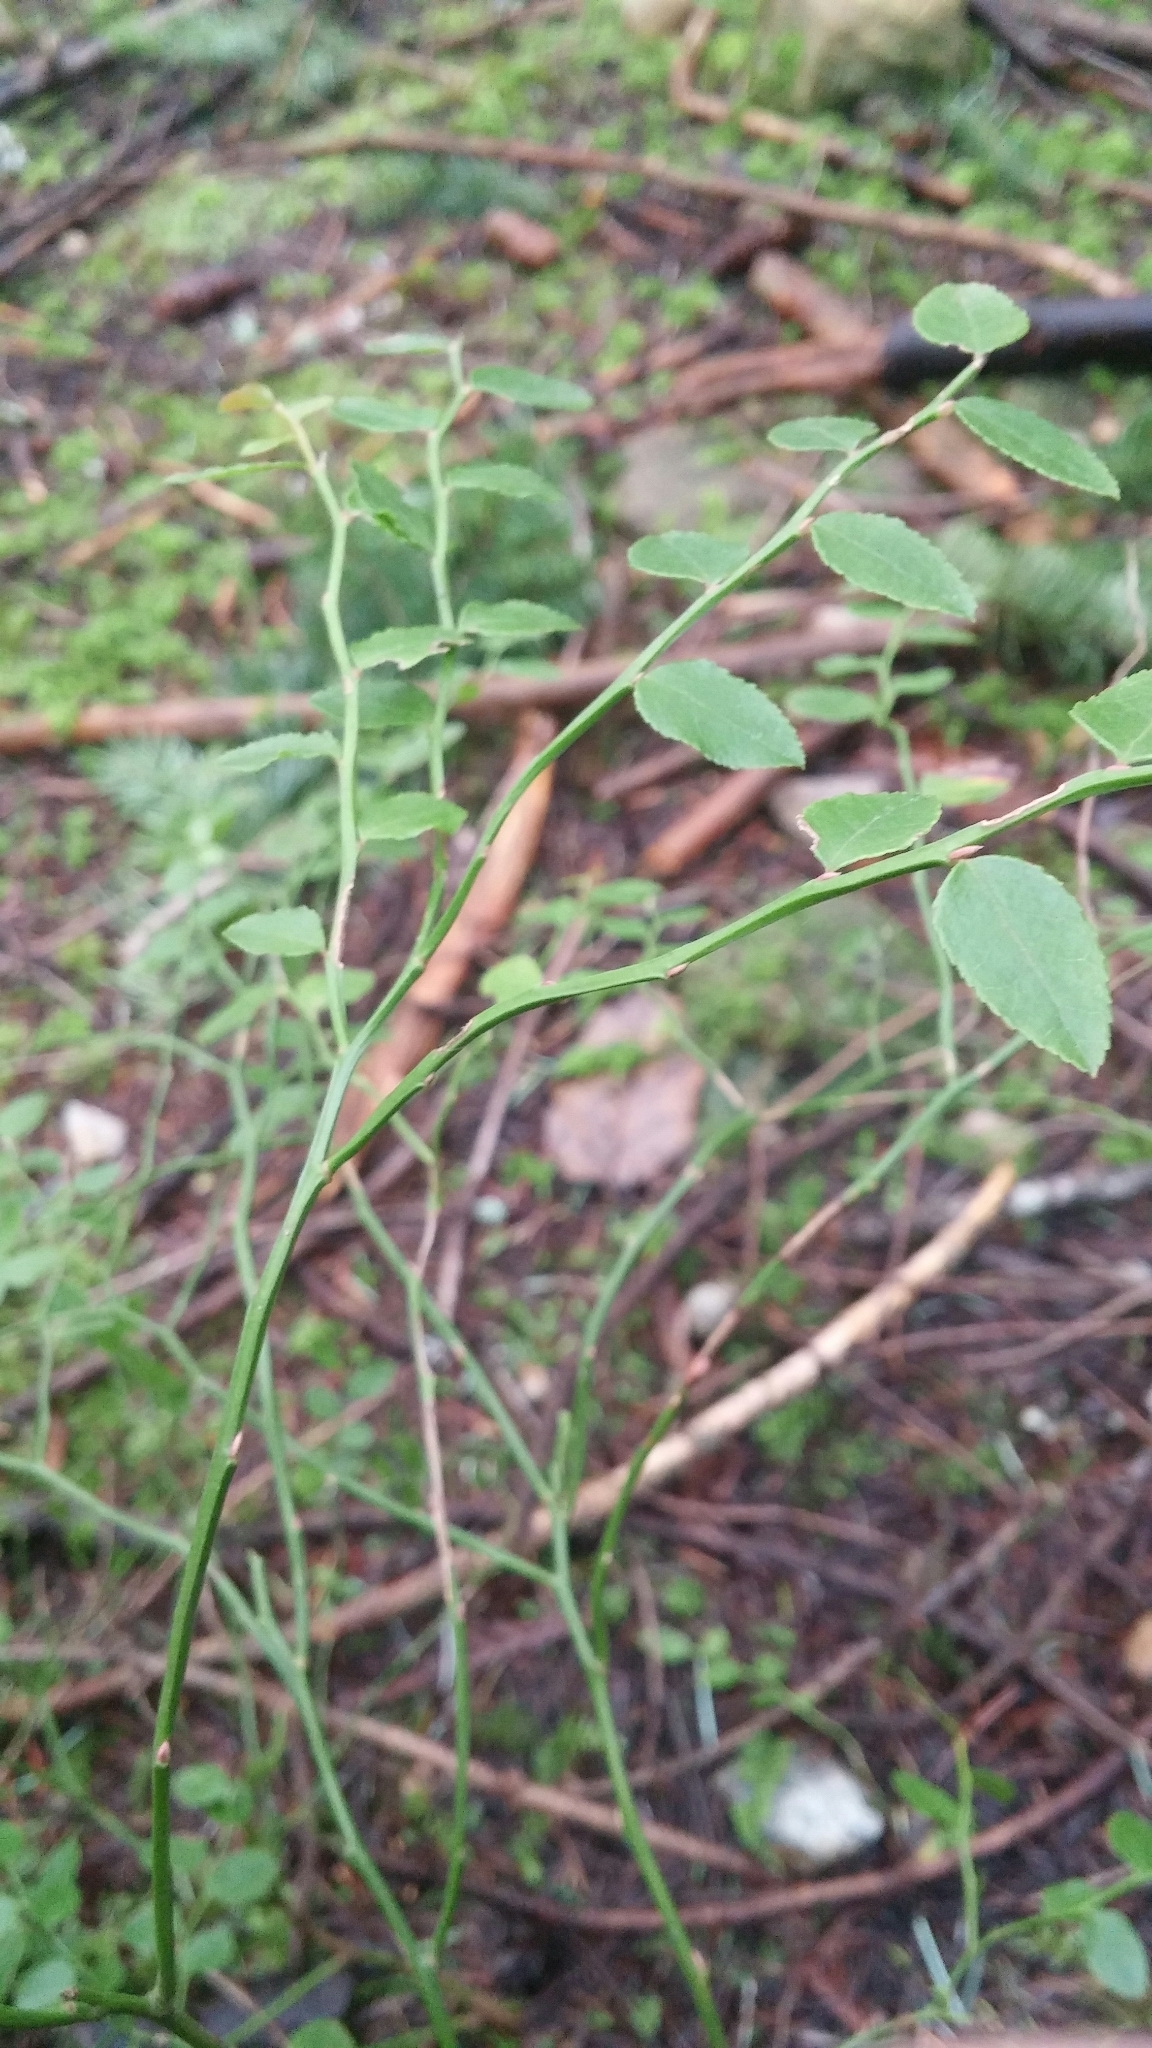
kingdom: Plantae
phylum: Tracheophyta
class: Magnoliopsida
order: Ericales
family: Ericaceae
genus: Vaccinium
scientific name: Vaccinium parvifolium
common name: Red-huckleberry
